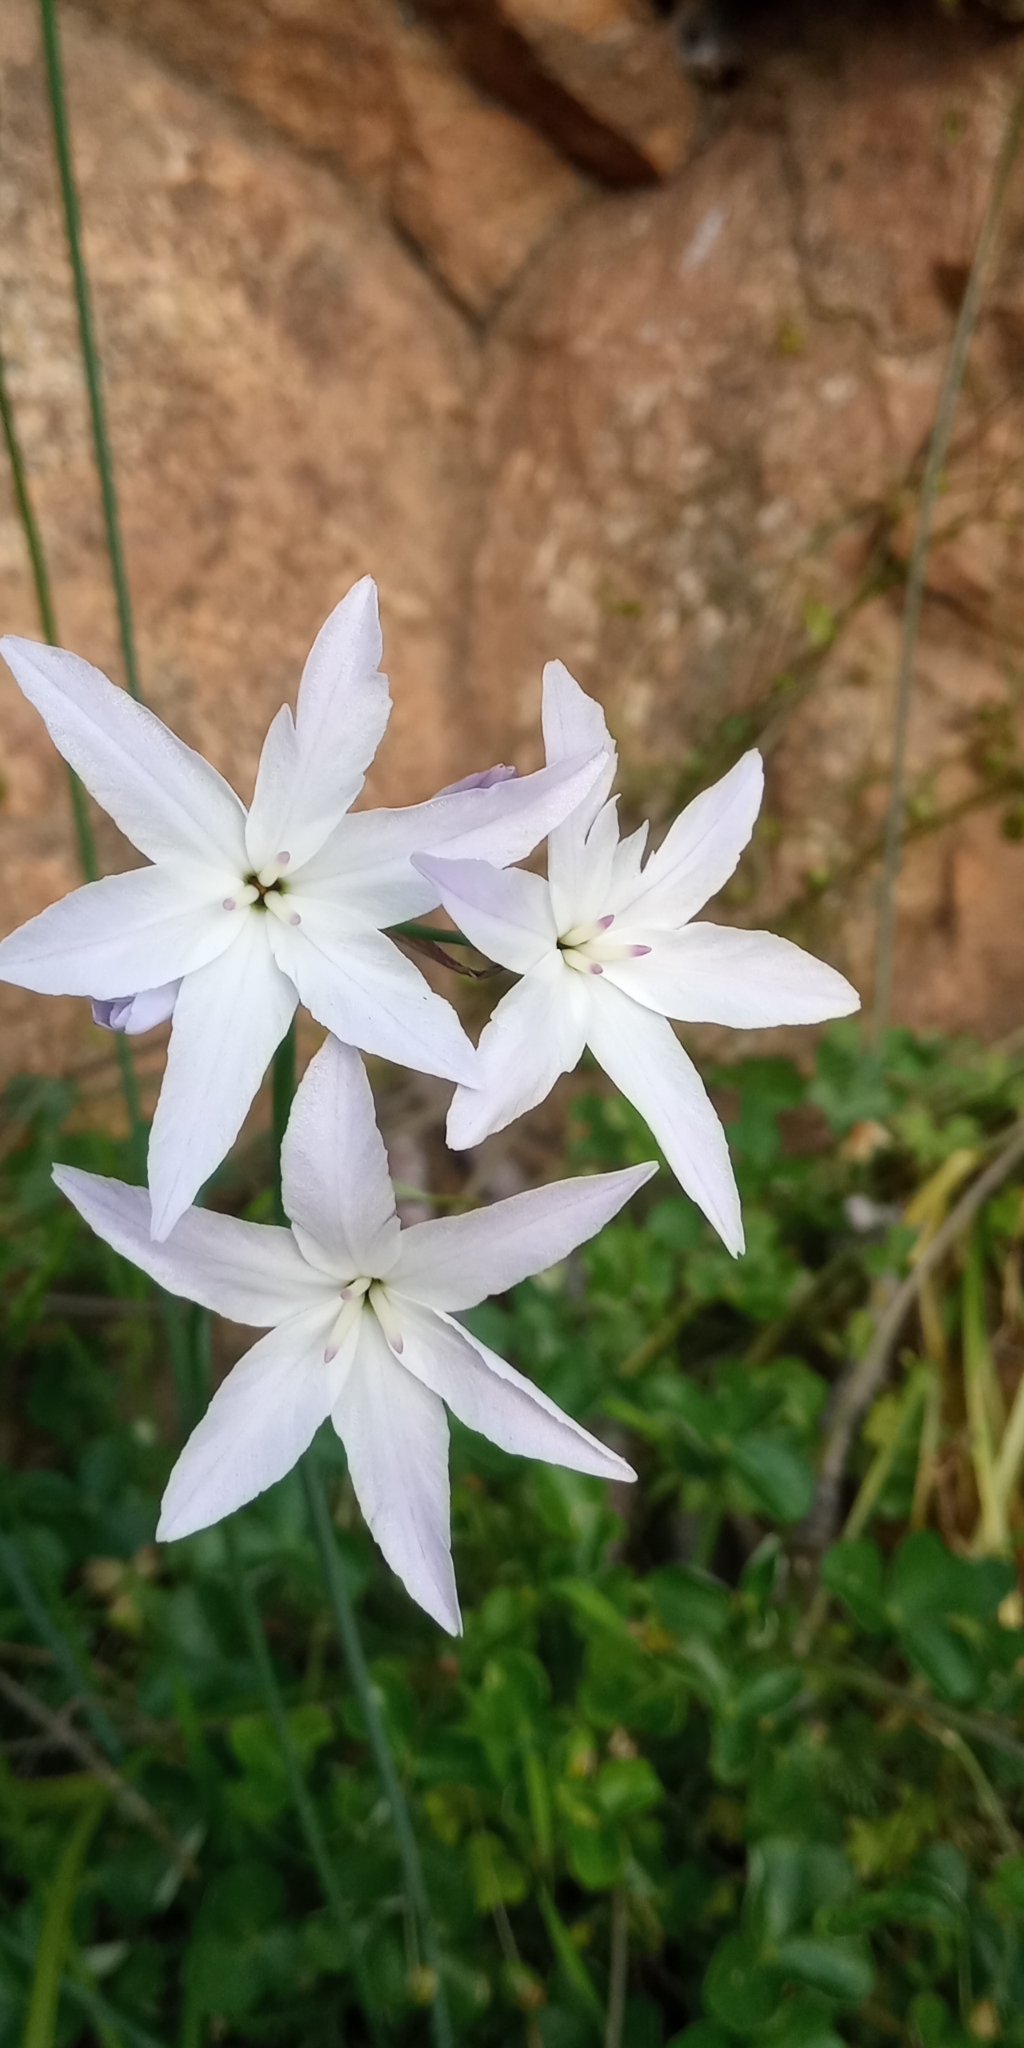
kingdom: Plantae
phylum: Tracheophyta
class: Liliopsida
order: Asparagales
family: Amaryllidaceae
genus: Leucocoryne
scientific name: Leucocoryne ixioides
